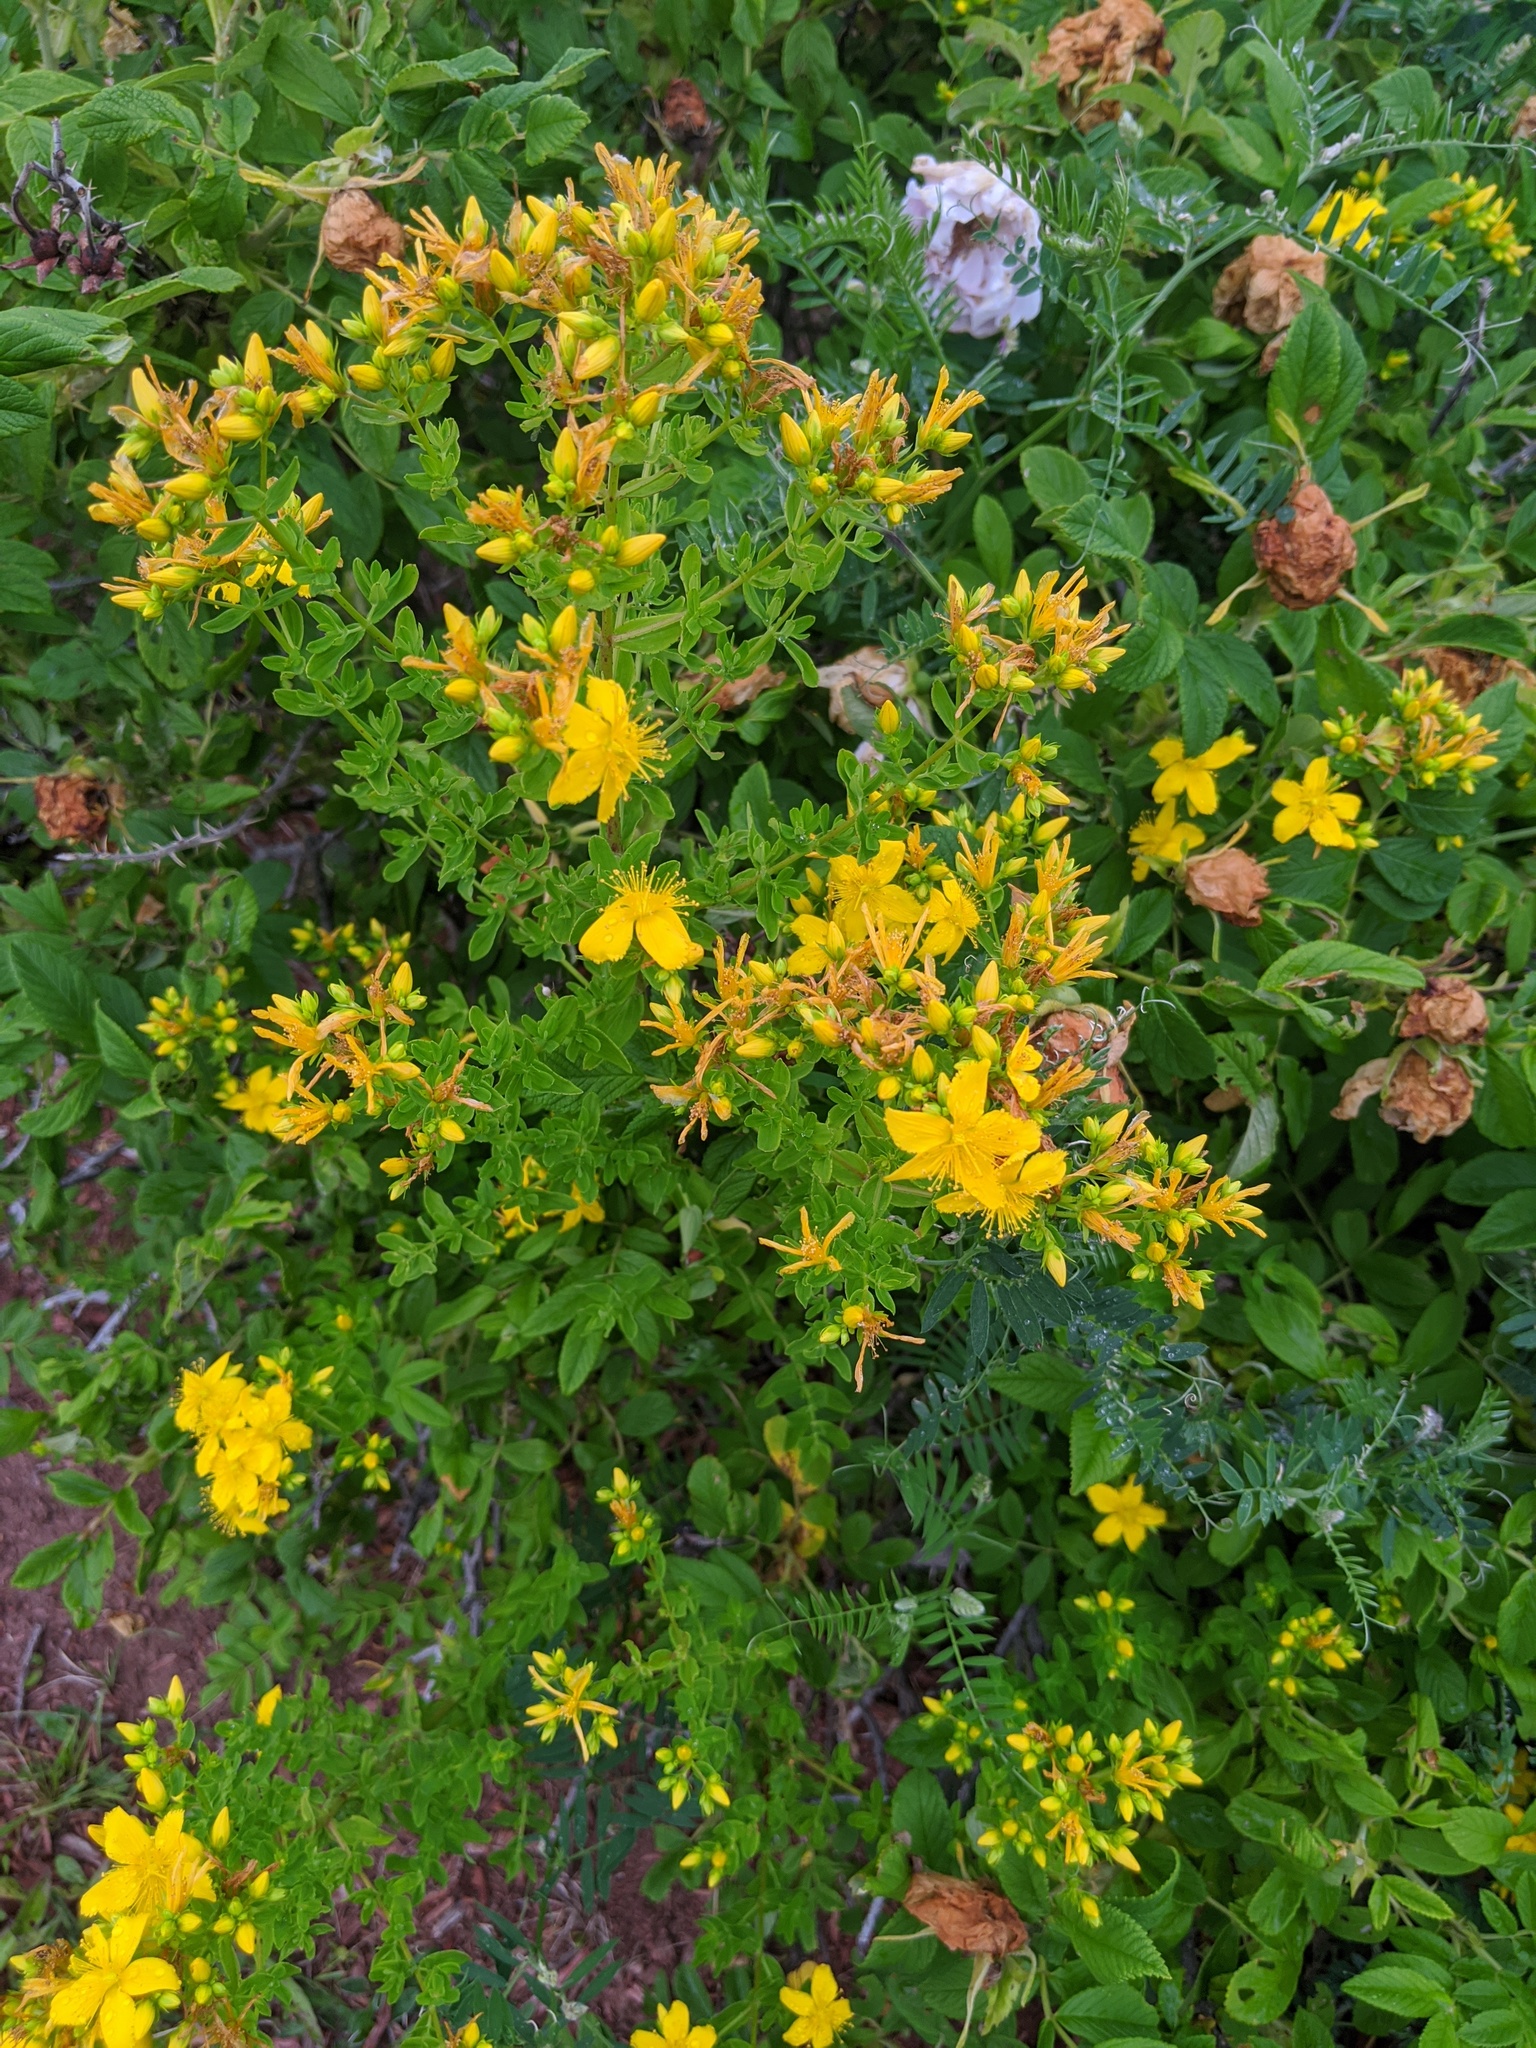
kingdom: Plantae
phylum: Tracheophyta
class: Magnoliopsida
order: Malpighiales
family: Hypericaceae
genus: Hypericum
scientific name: Hypericum perforatum
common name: Common st. johnswort
